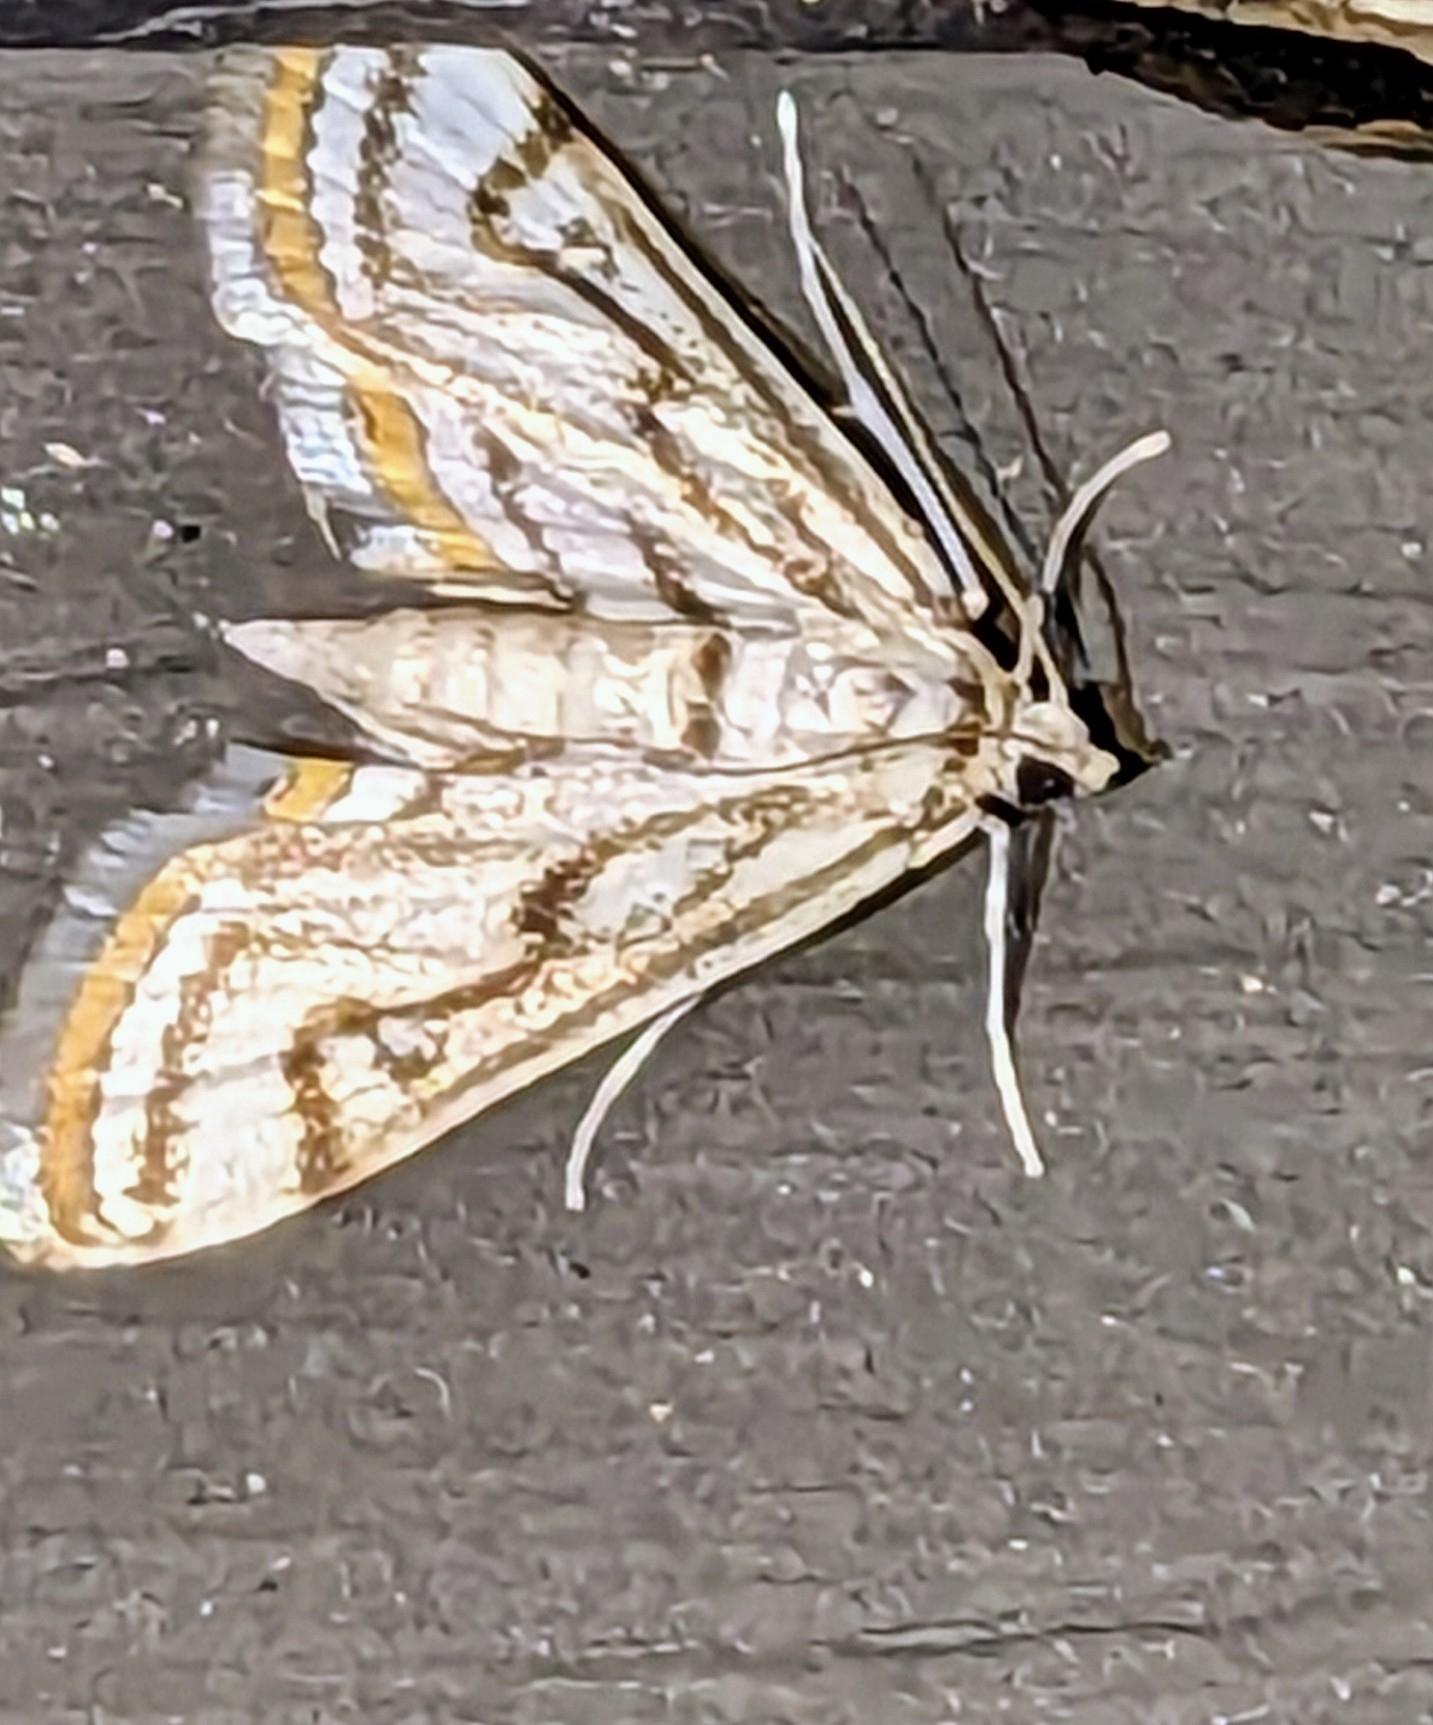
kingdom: Animalia
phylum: Arthropoda
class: Insecta
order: Lepidoptera
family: Crambidae
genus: Parapoynx
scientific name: Parapoynx badiusalis
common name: Chestnut-marked pondweed moth
